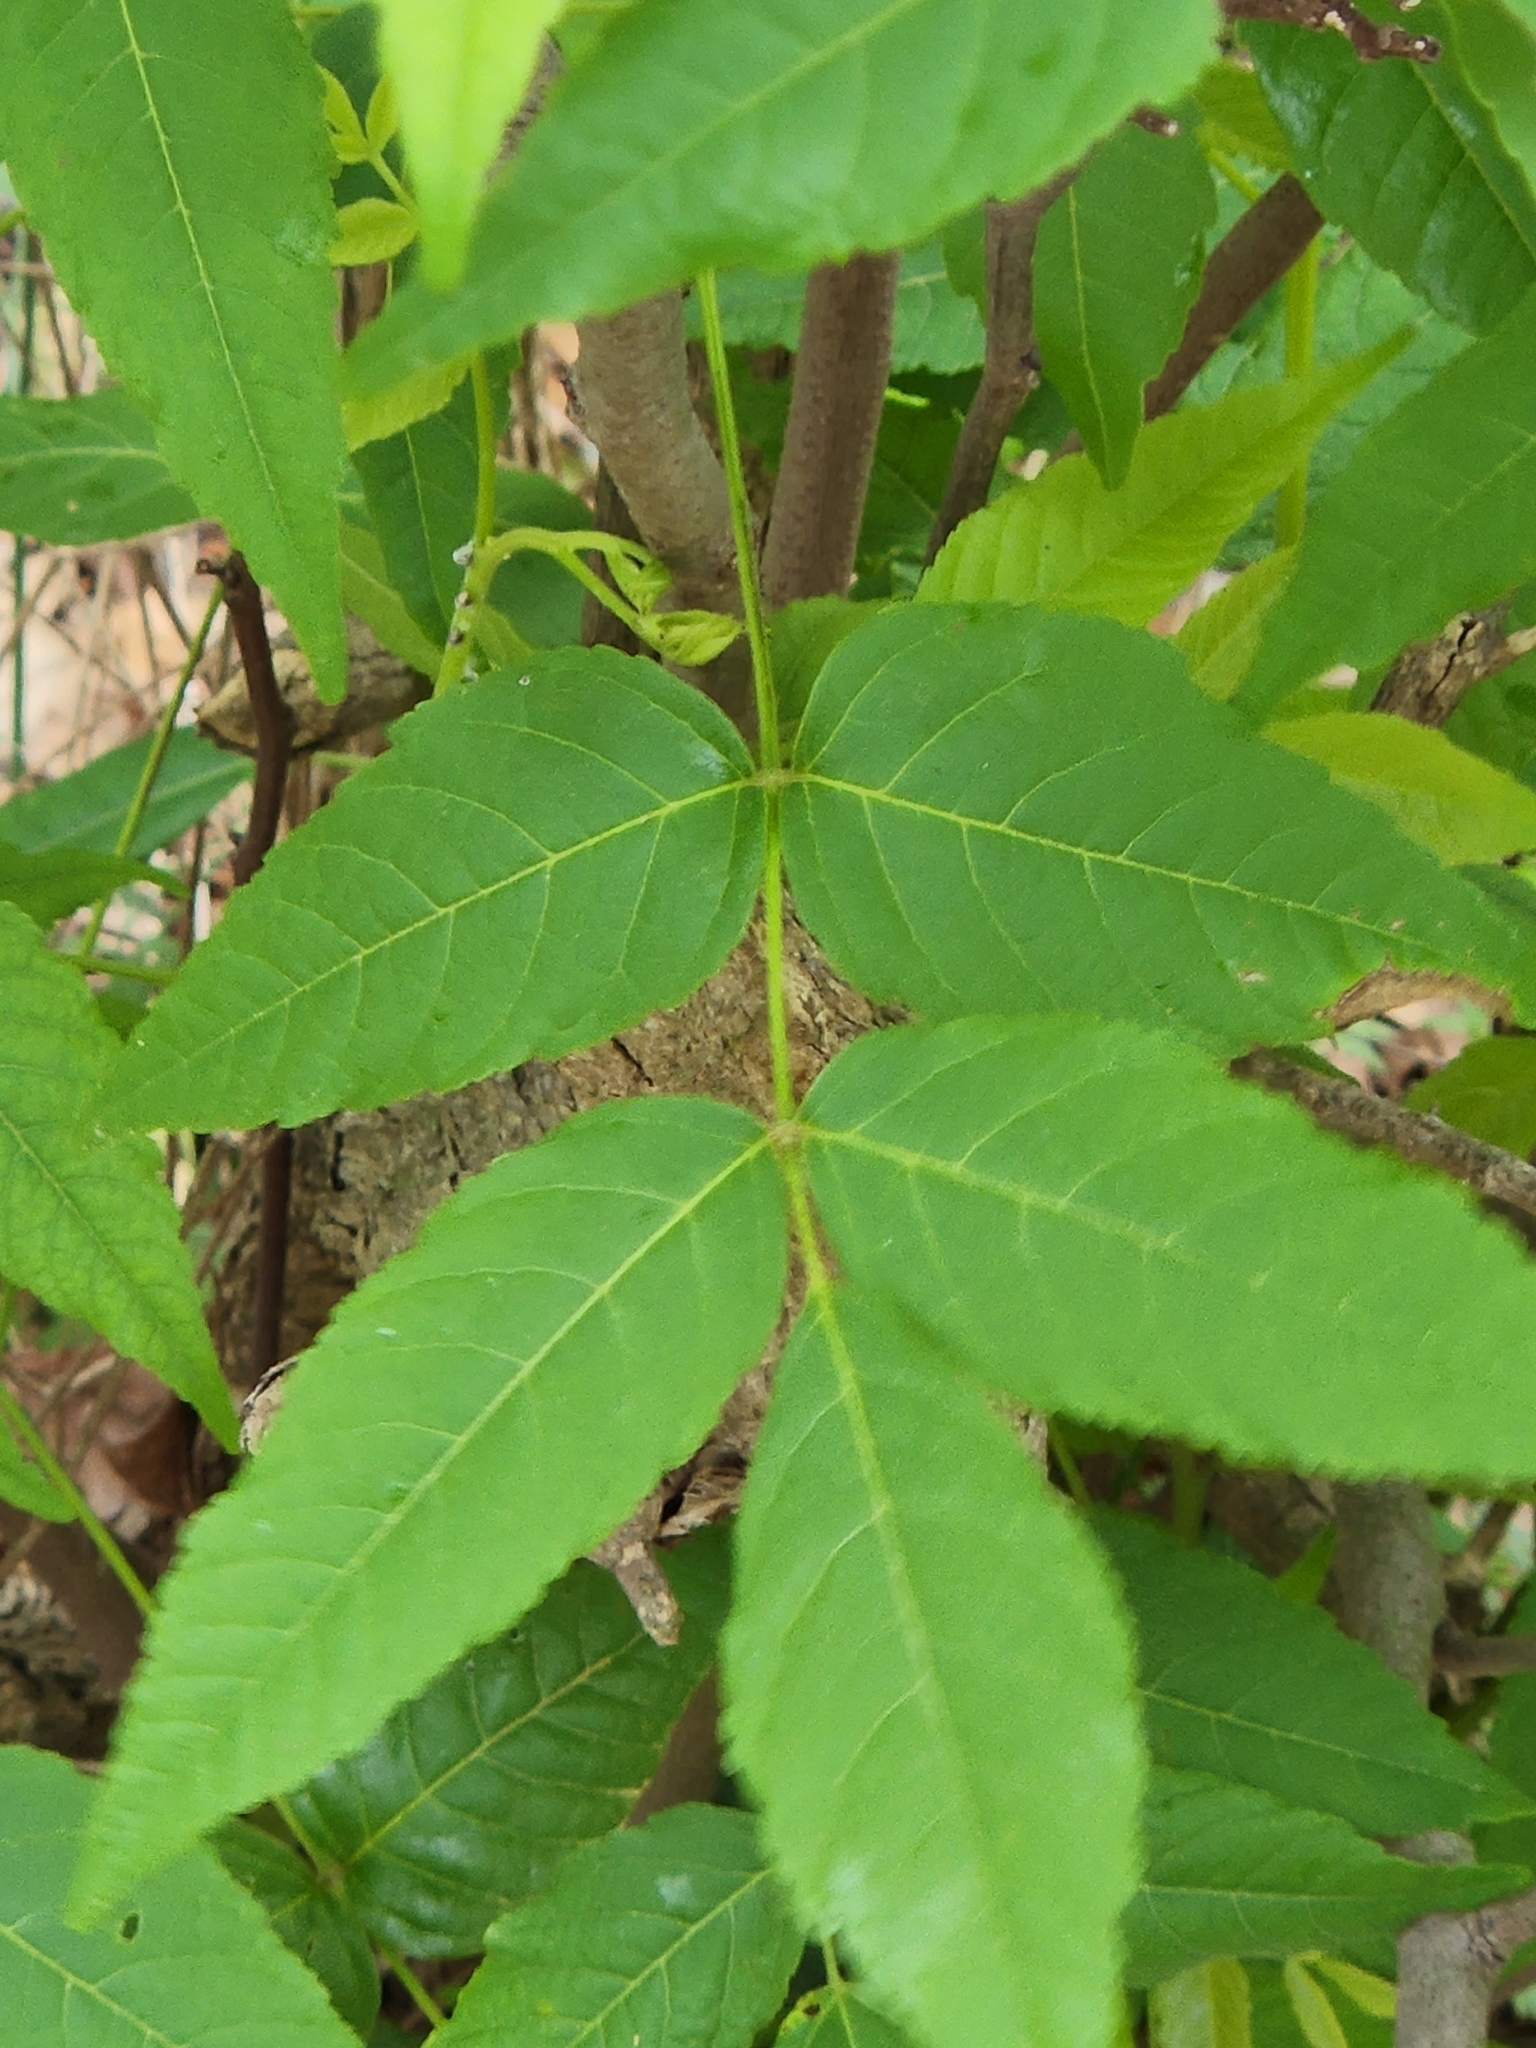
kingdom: Plantae
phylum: Tracheophyta
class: Magnoliopsida
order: Sapindales
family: Sapindaceae
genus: Ungnadia
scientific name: Ungnadia speciosa
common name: Texas-buckeye
